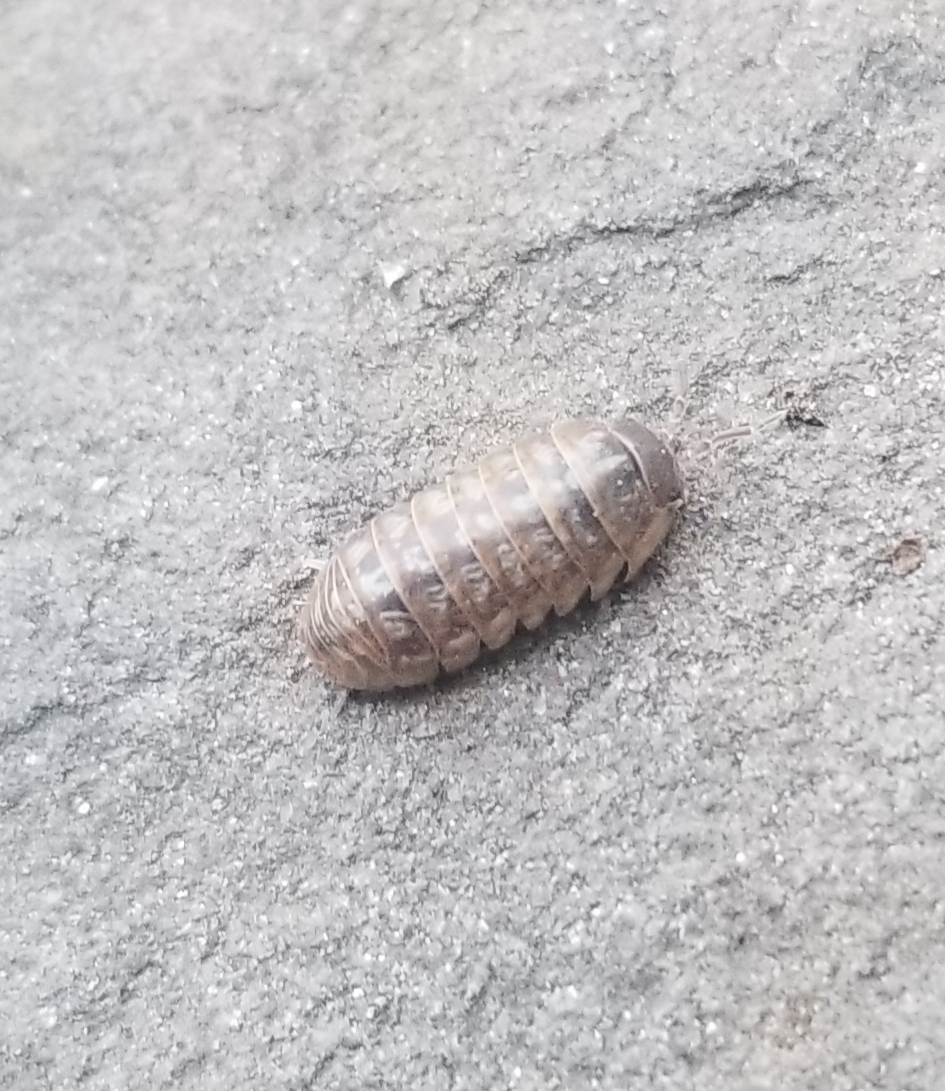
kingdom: Animalia
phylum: Arthropoda
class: Malacostraca
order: Isopoda
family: Armadillidiidae
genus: Armadillidium
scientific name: Armadillidium vulgare
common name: Common pill woodlouse
